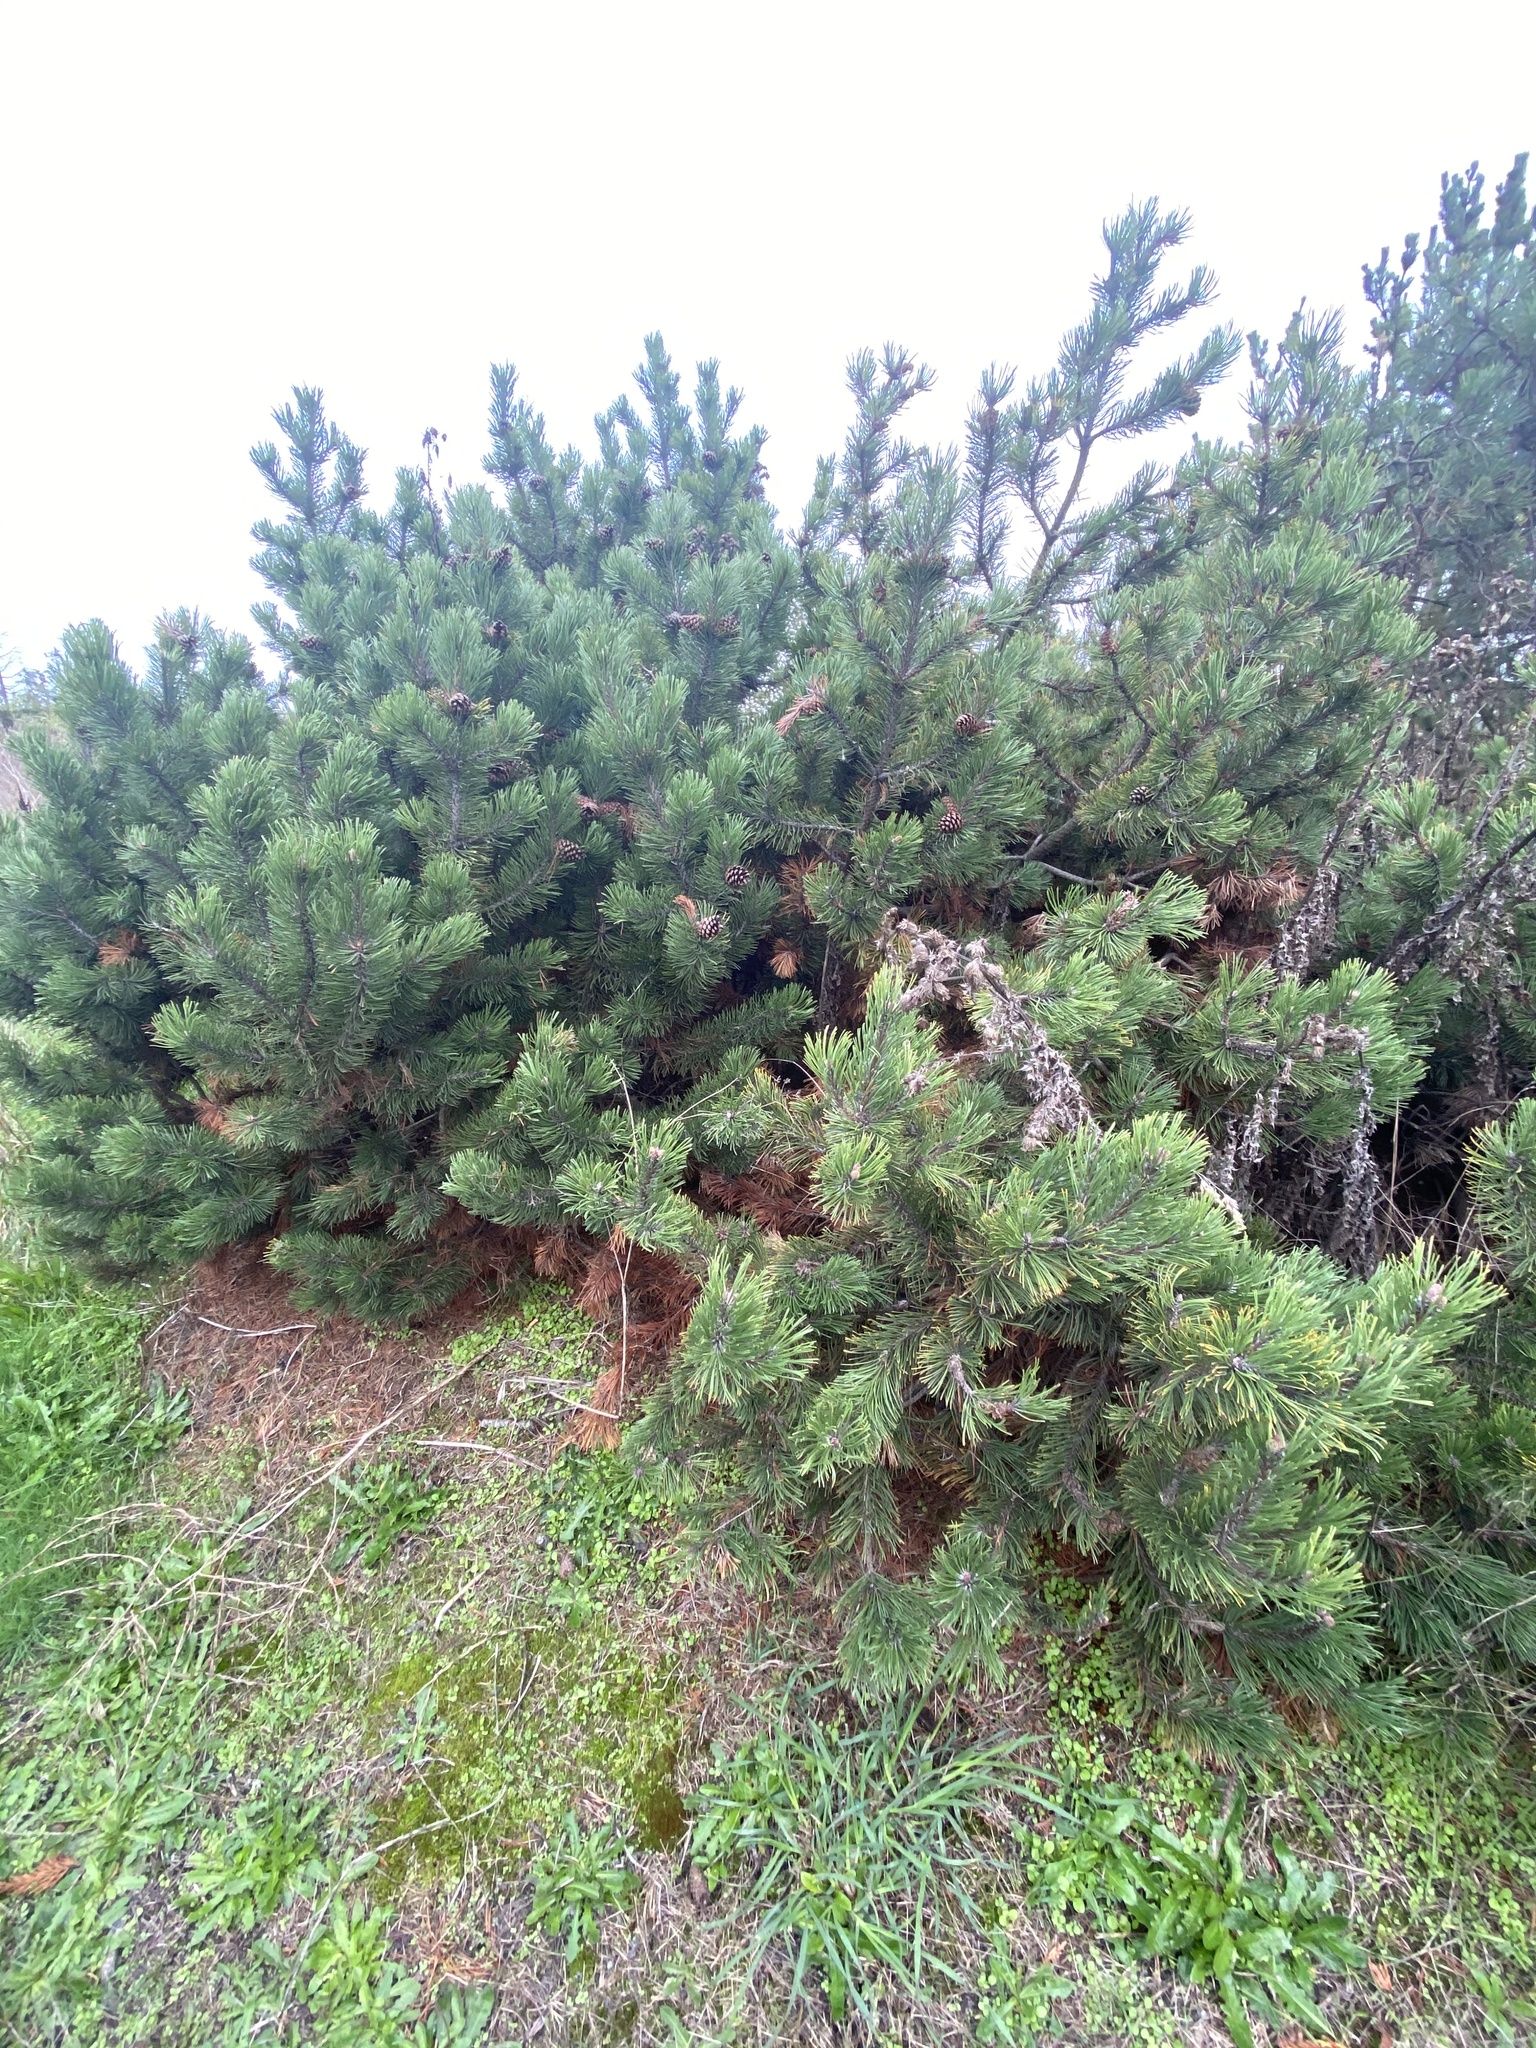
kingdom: Plantae
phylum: Tracheophyta
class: Pinopsida
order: Pinales
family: Pinaceae
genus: Pinus
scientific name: Pinus contorta
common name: Lodgepole pine
